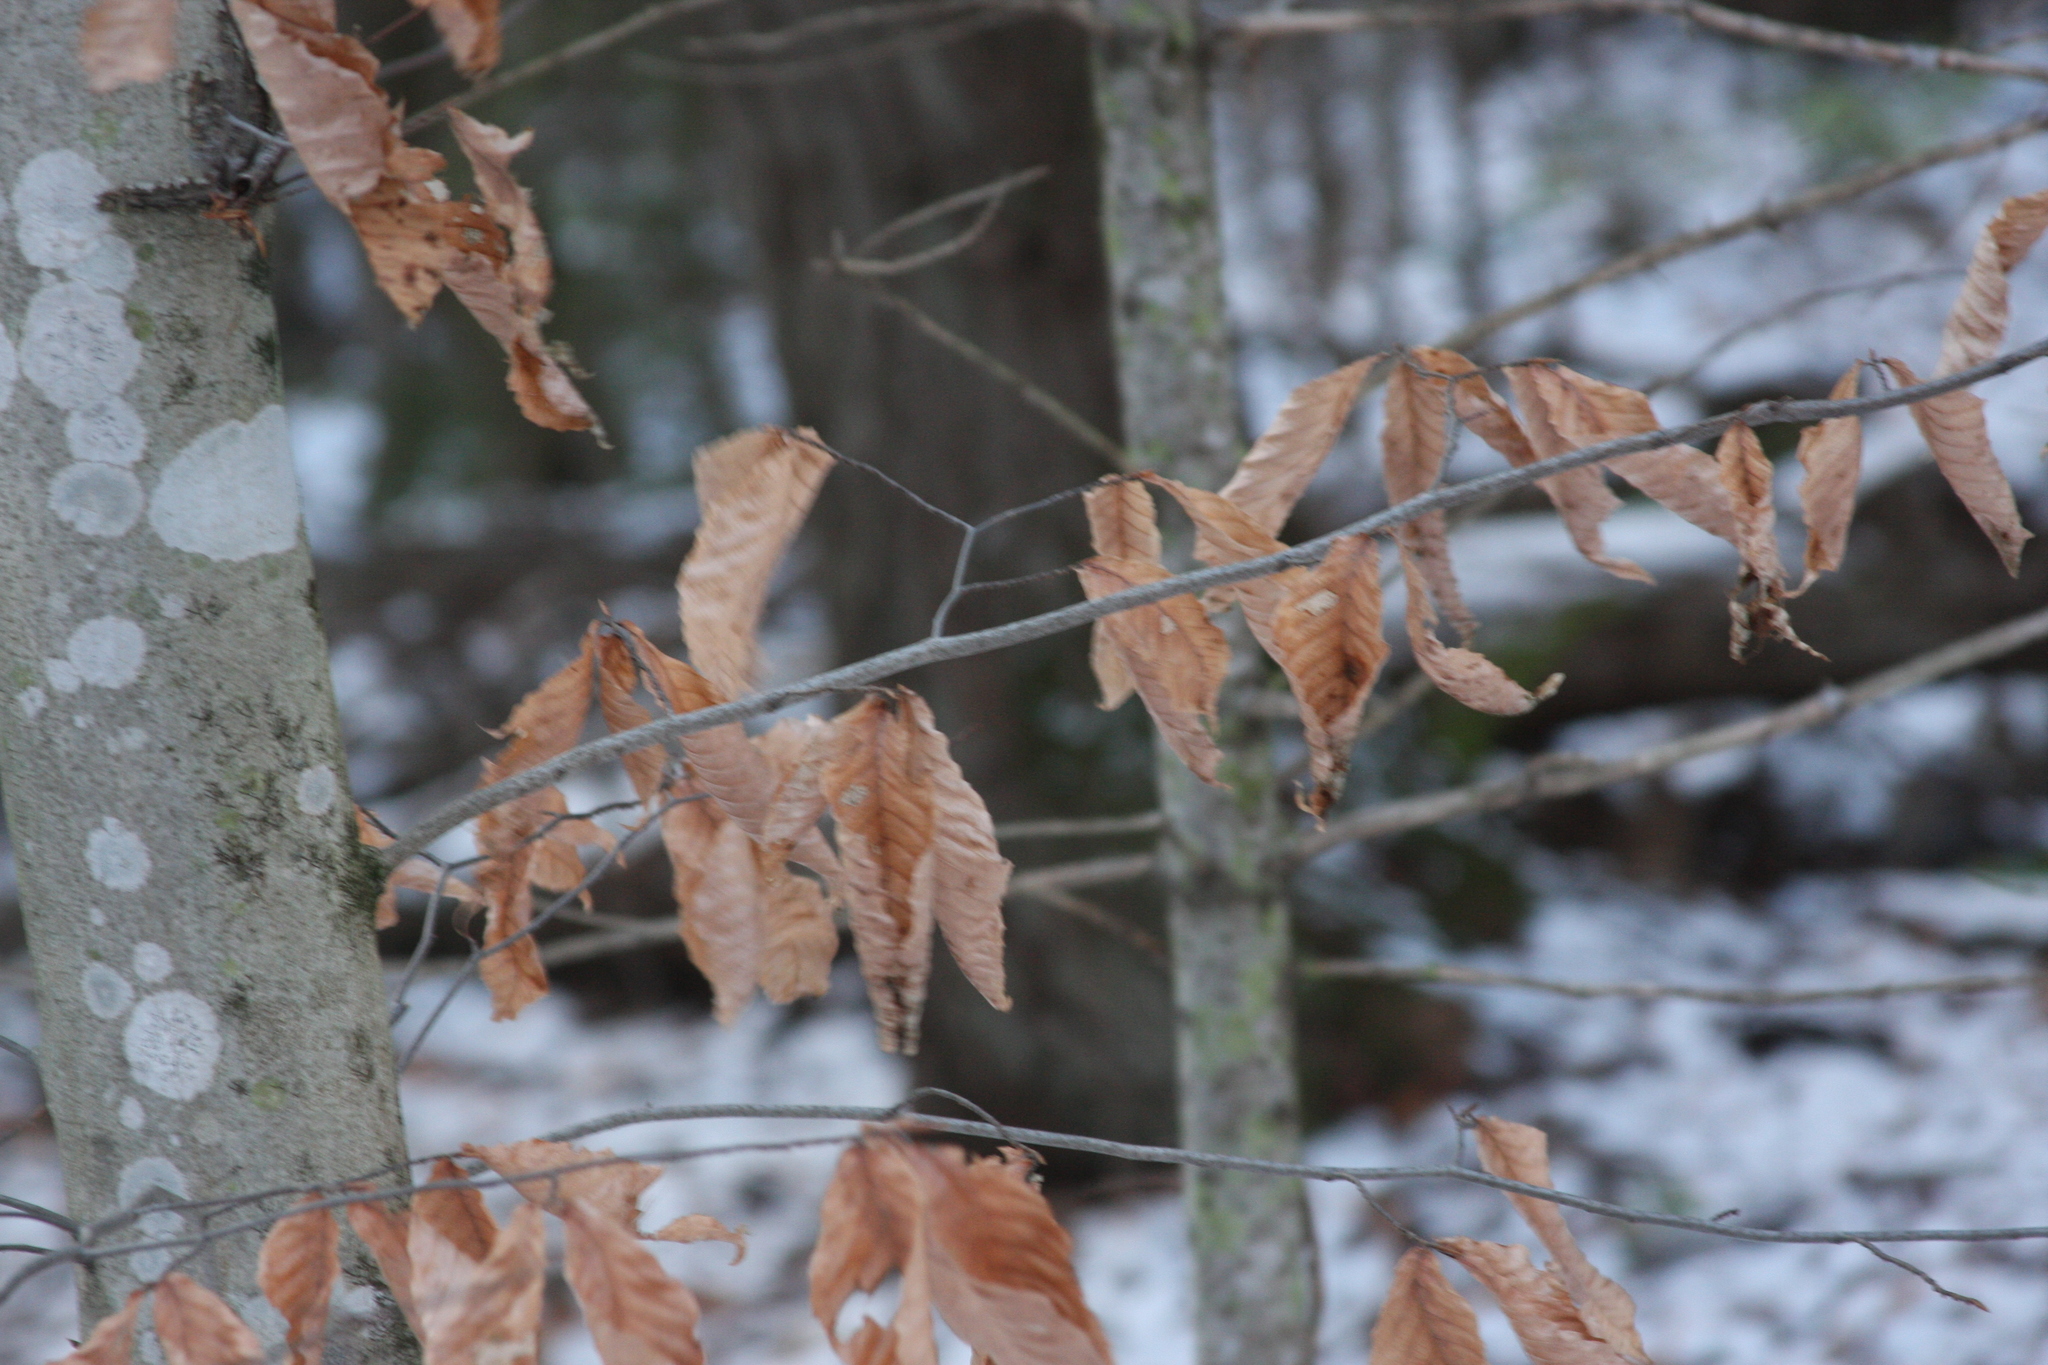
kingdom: Plantae
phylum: Tracheophyta
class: Magnoliopsida
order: Fagales
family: Fagaceae
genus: Fagus
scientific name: Fagus grandifolia
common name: American beech
